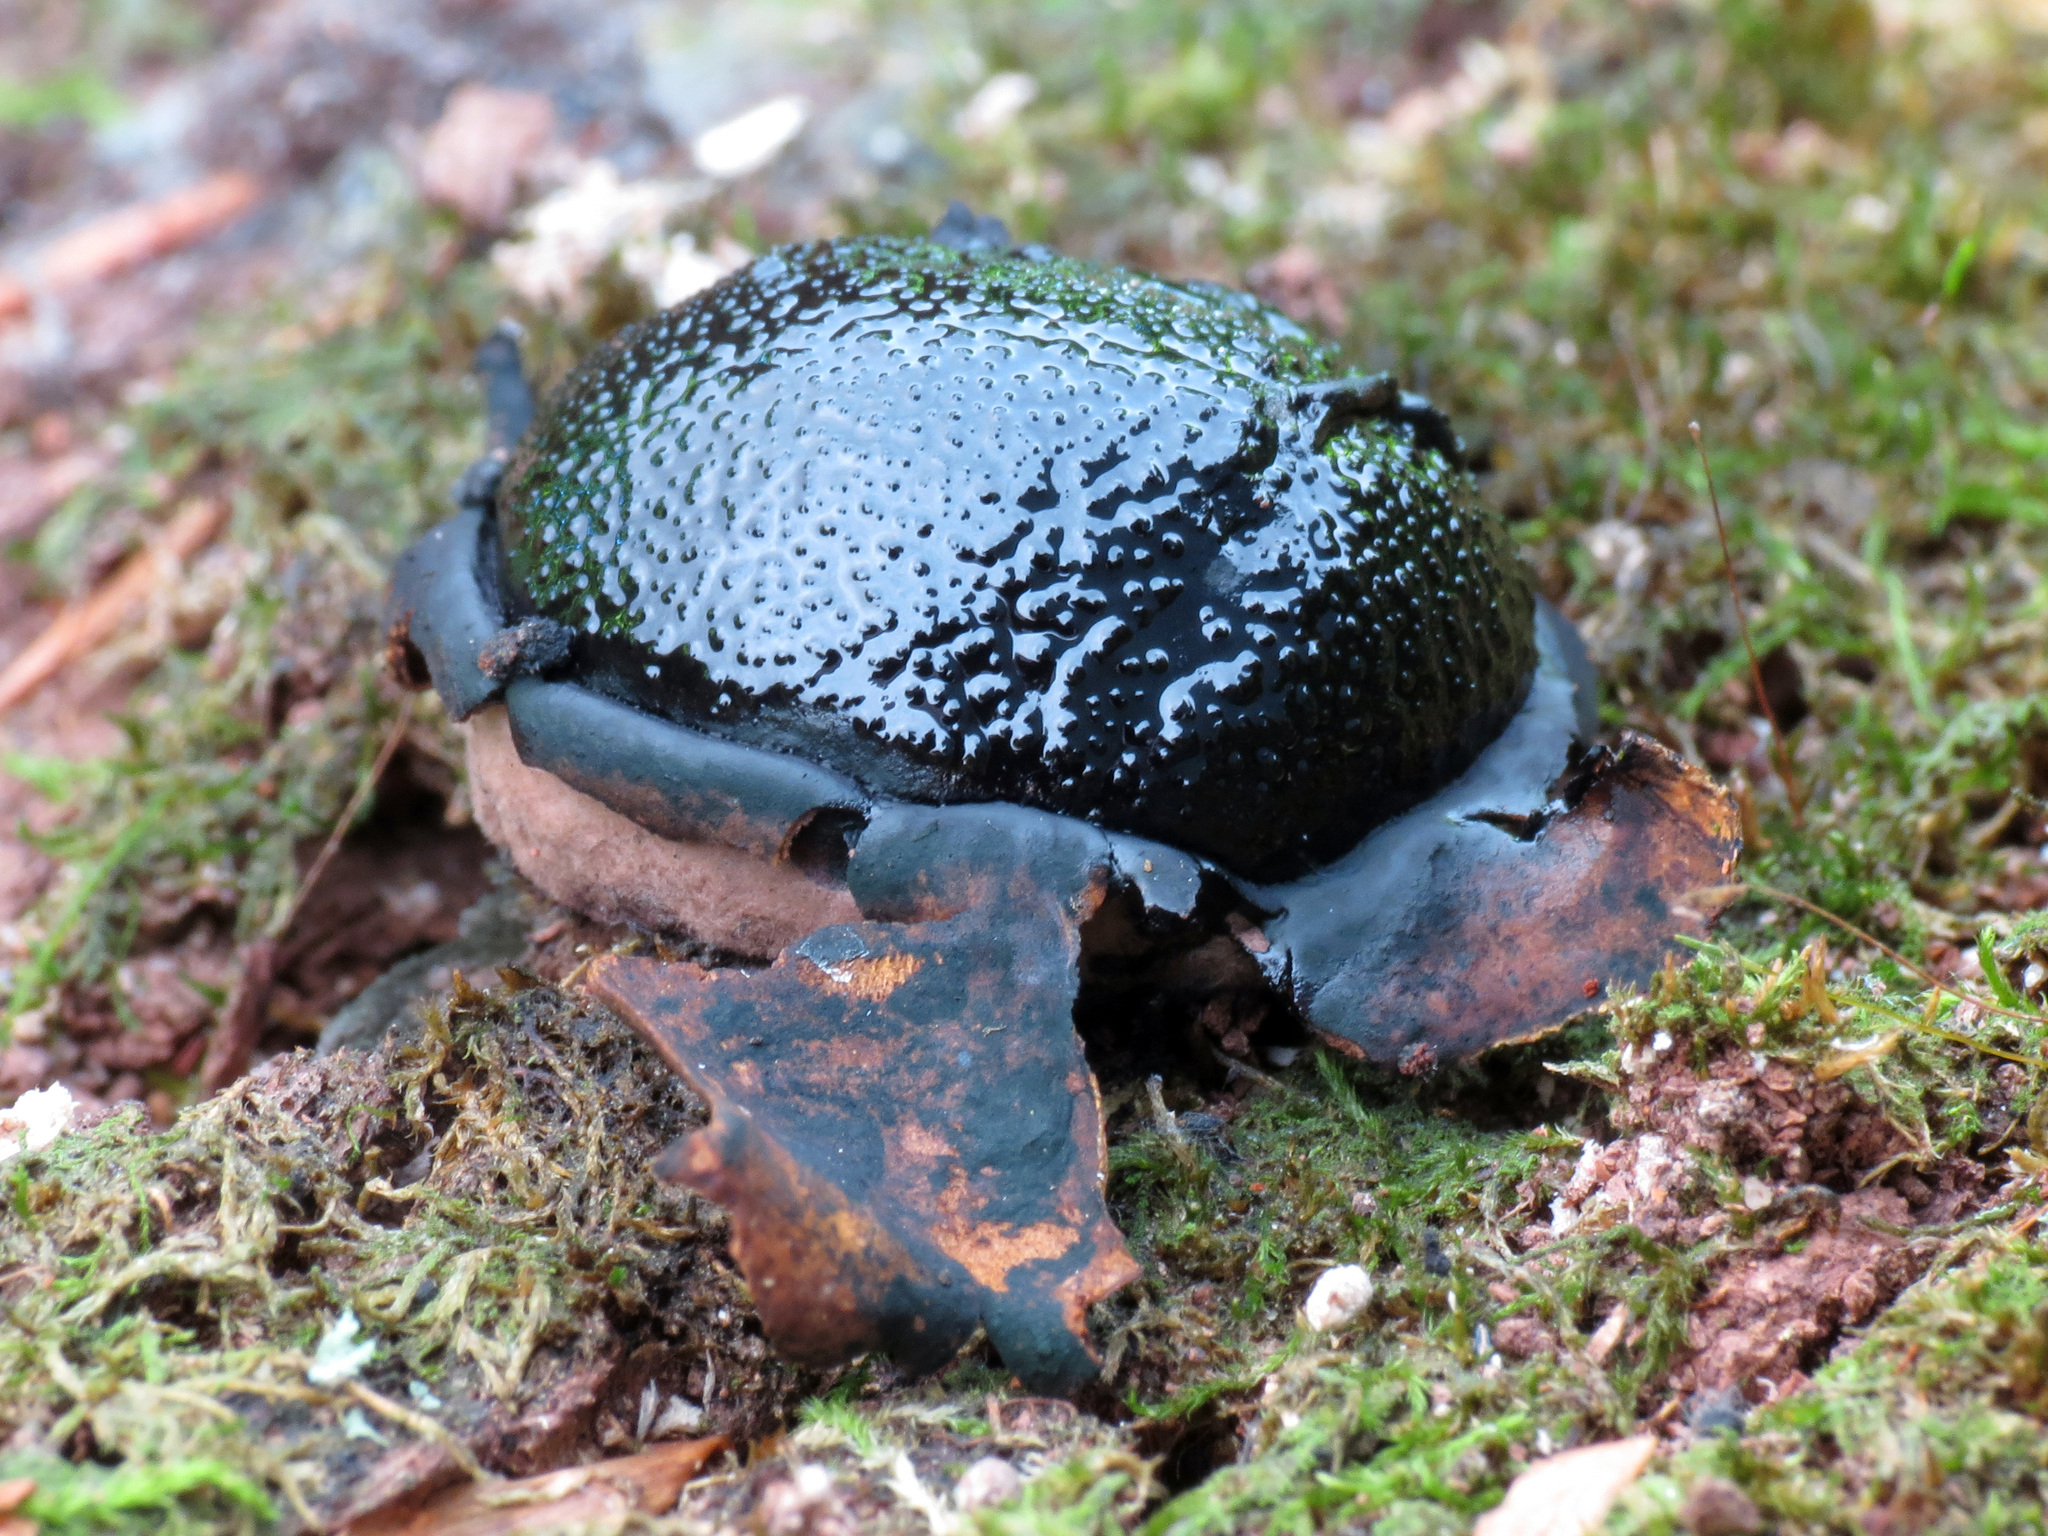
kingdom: Fungi
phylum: Ascomycota
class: Sordariomycetes
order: Boliniales
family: Boliniaceae
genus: Camarops
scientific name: Camarops petersii
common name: Dog's nose fungus
